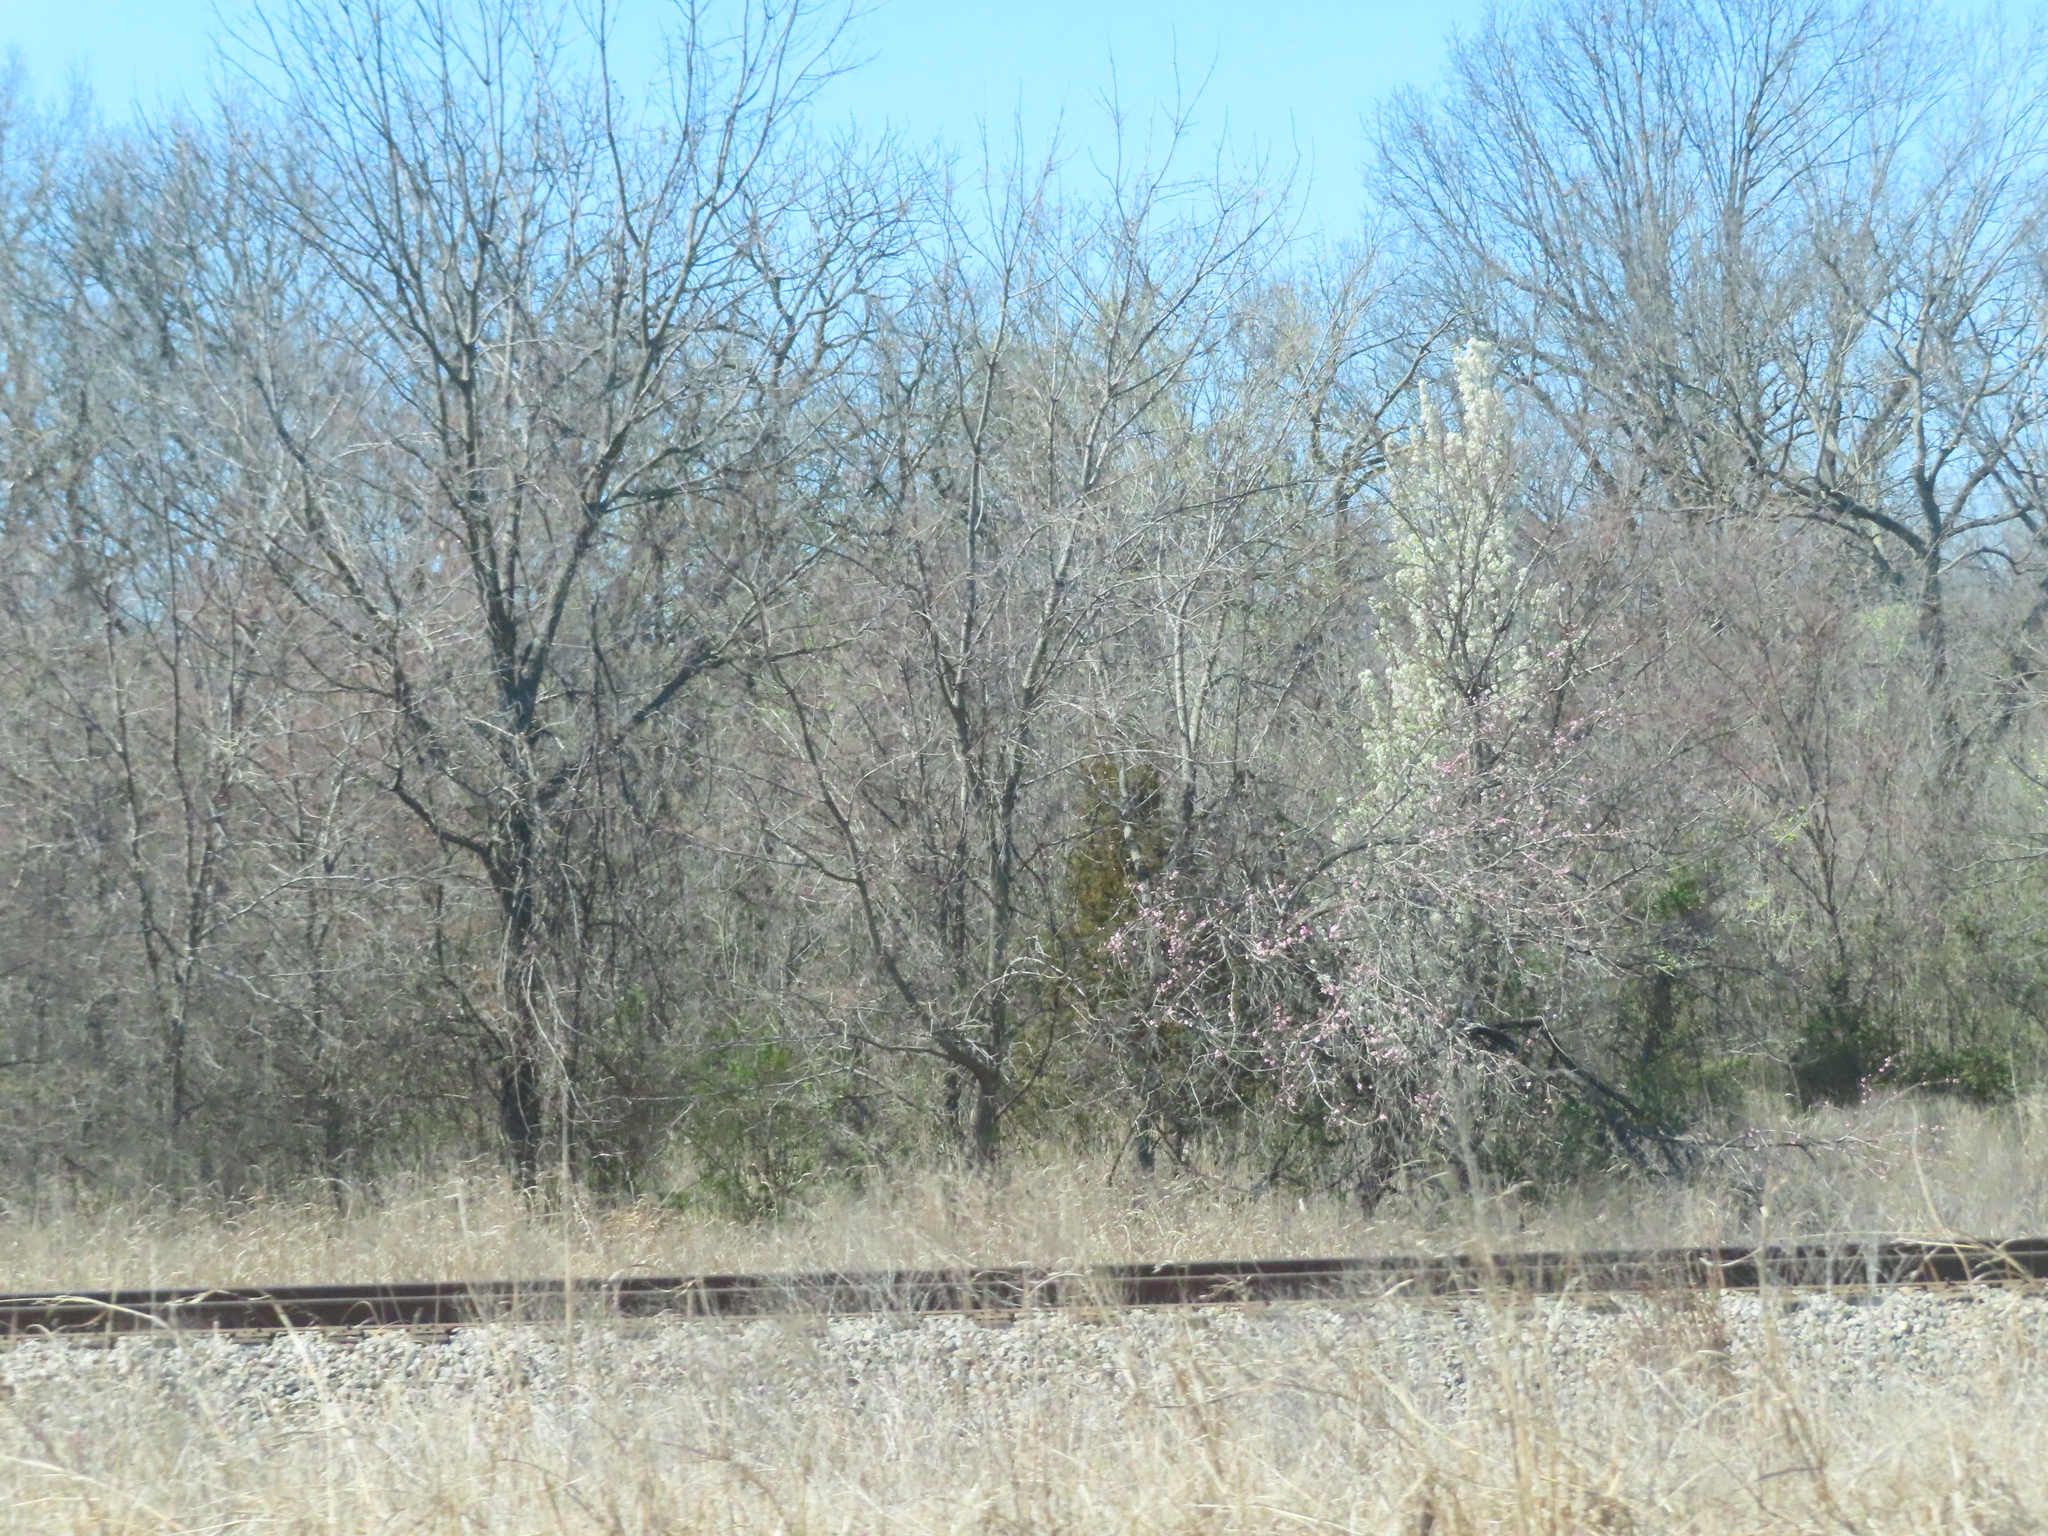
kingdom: Plantae
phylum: Tracheophyta
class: Magnoliopsida
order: Rosales
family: Rosaceae
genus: Pyrus
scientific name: Pyrus calleryana
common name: Callery pear
